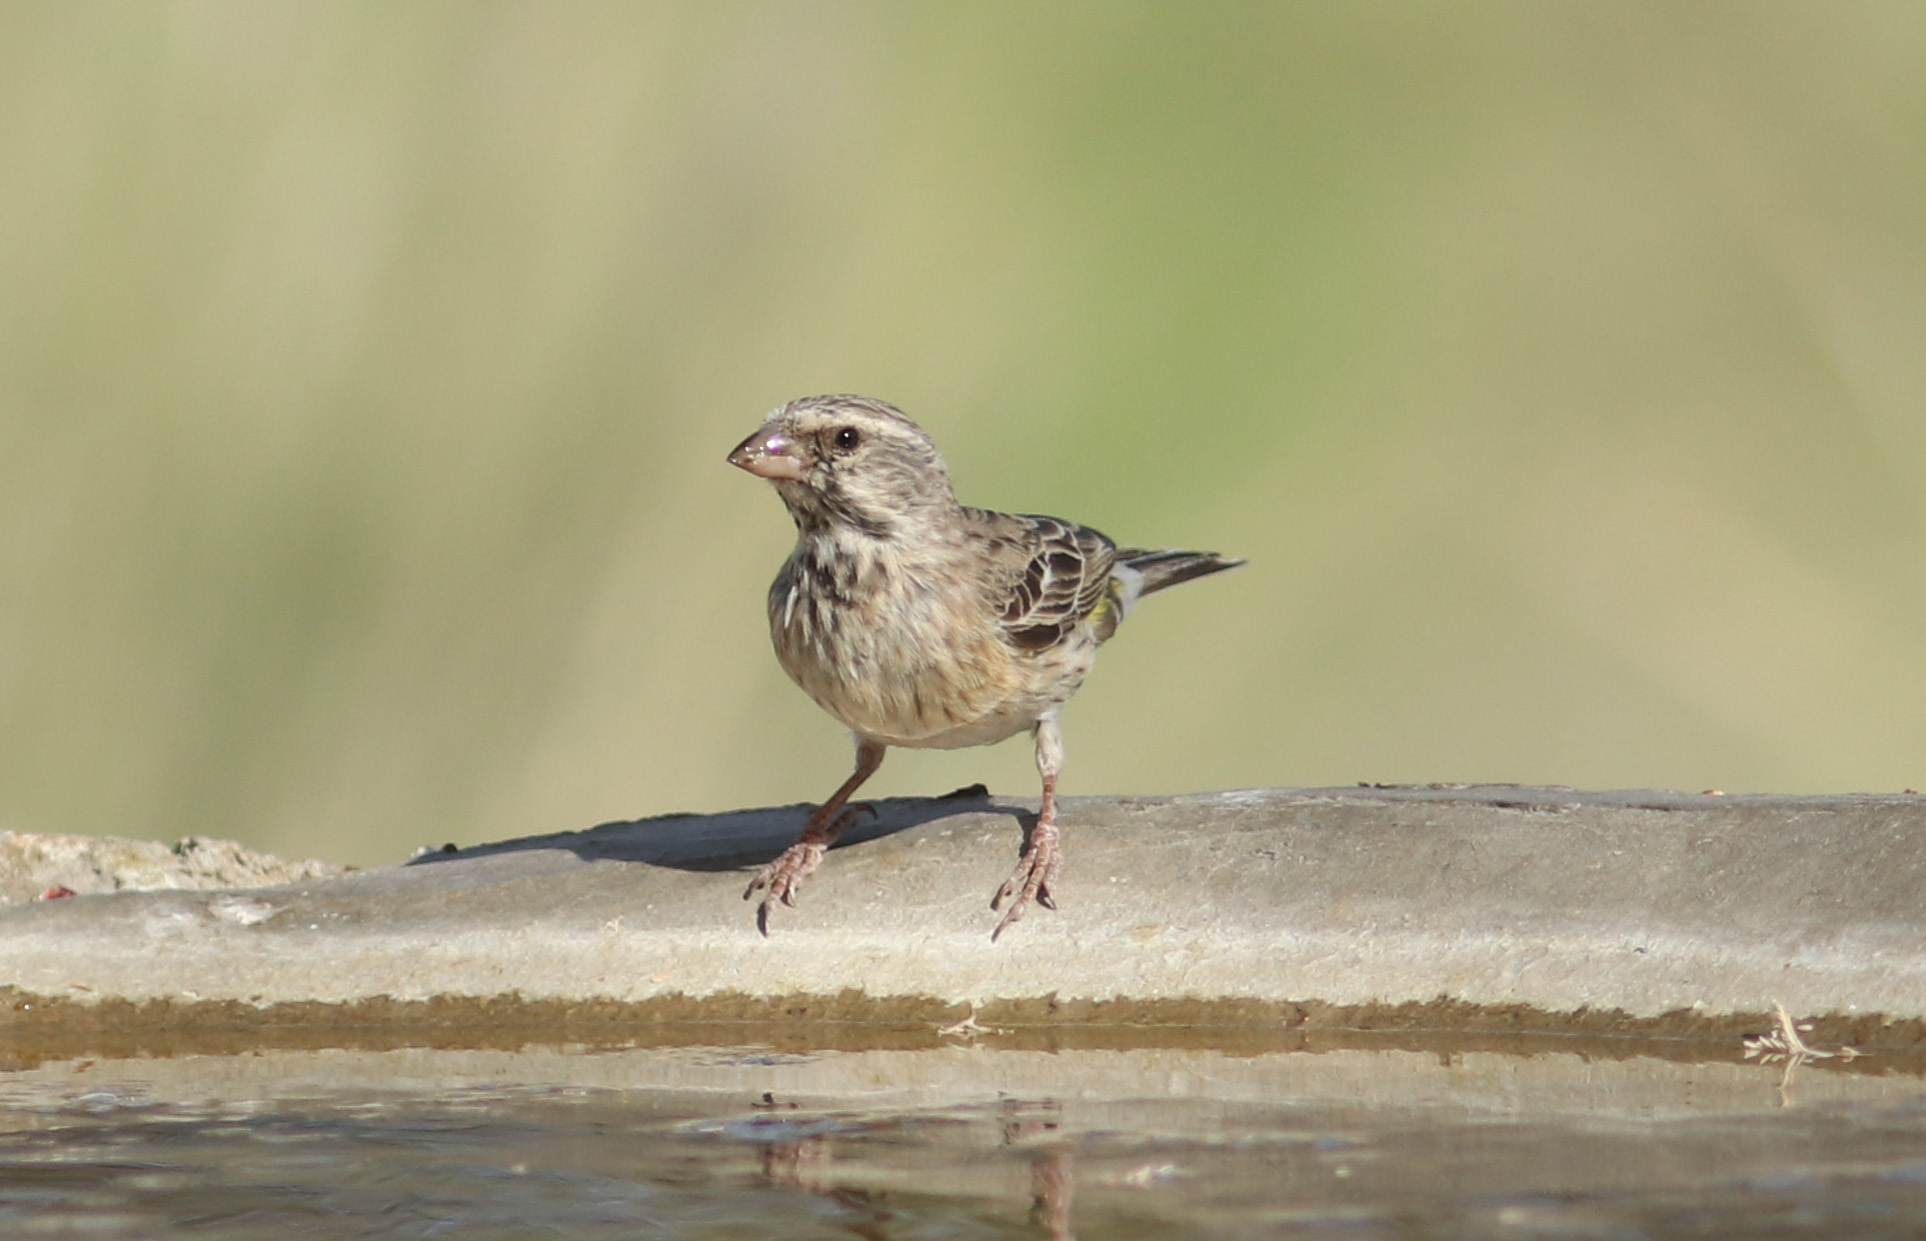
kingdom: Animalia
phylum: Chordata
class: Aves
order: Passeriformes
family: Fringillidae
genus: Crithagra
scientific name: Crithagra atrogularis
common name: Black-throated canary
